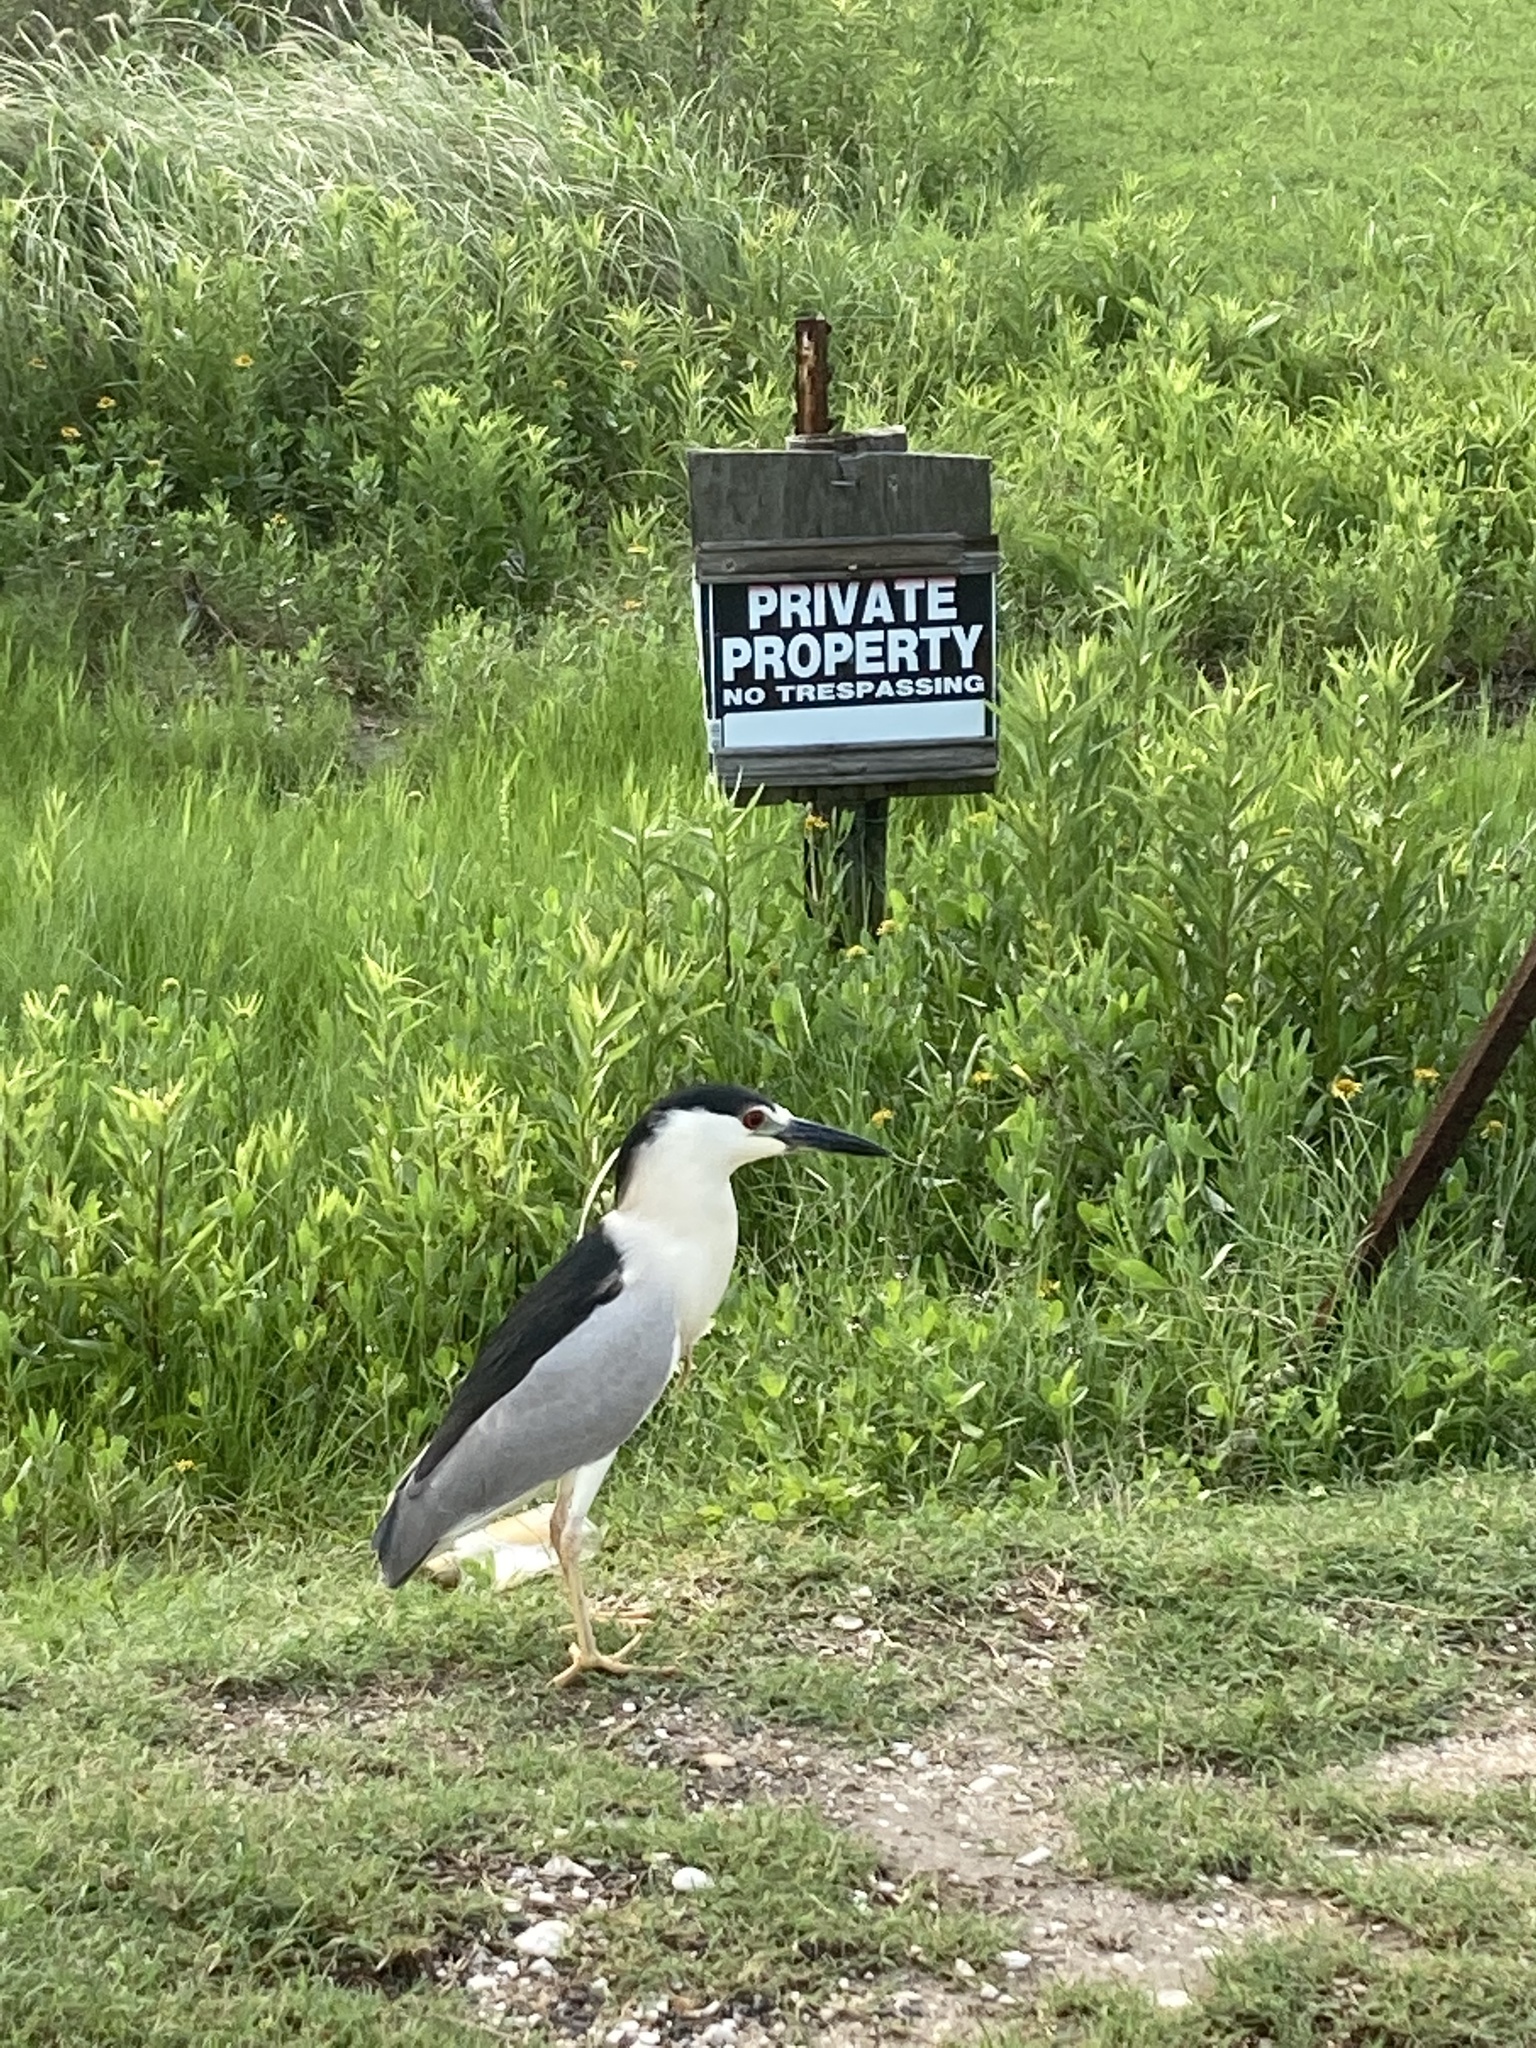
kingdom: Animalia
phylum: Chordata
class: Aves
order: Pelecaniformes
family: Ardeidae
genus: Nycticorax
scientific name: Nycticorax nycticorax
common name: Black-crowned night heron
